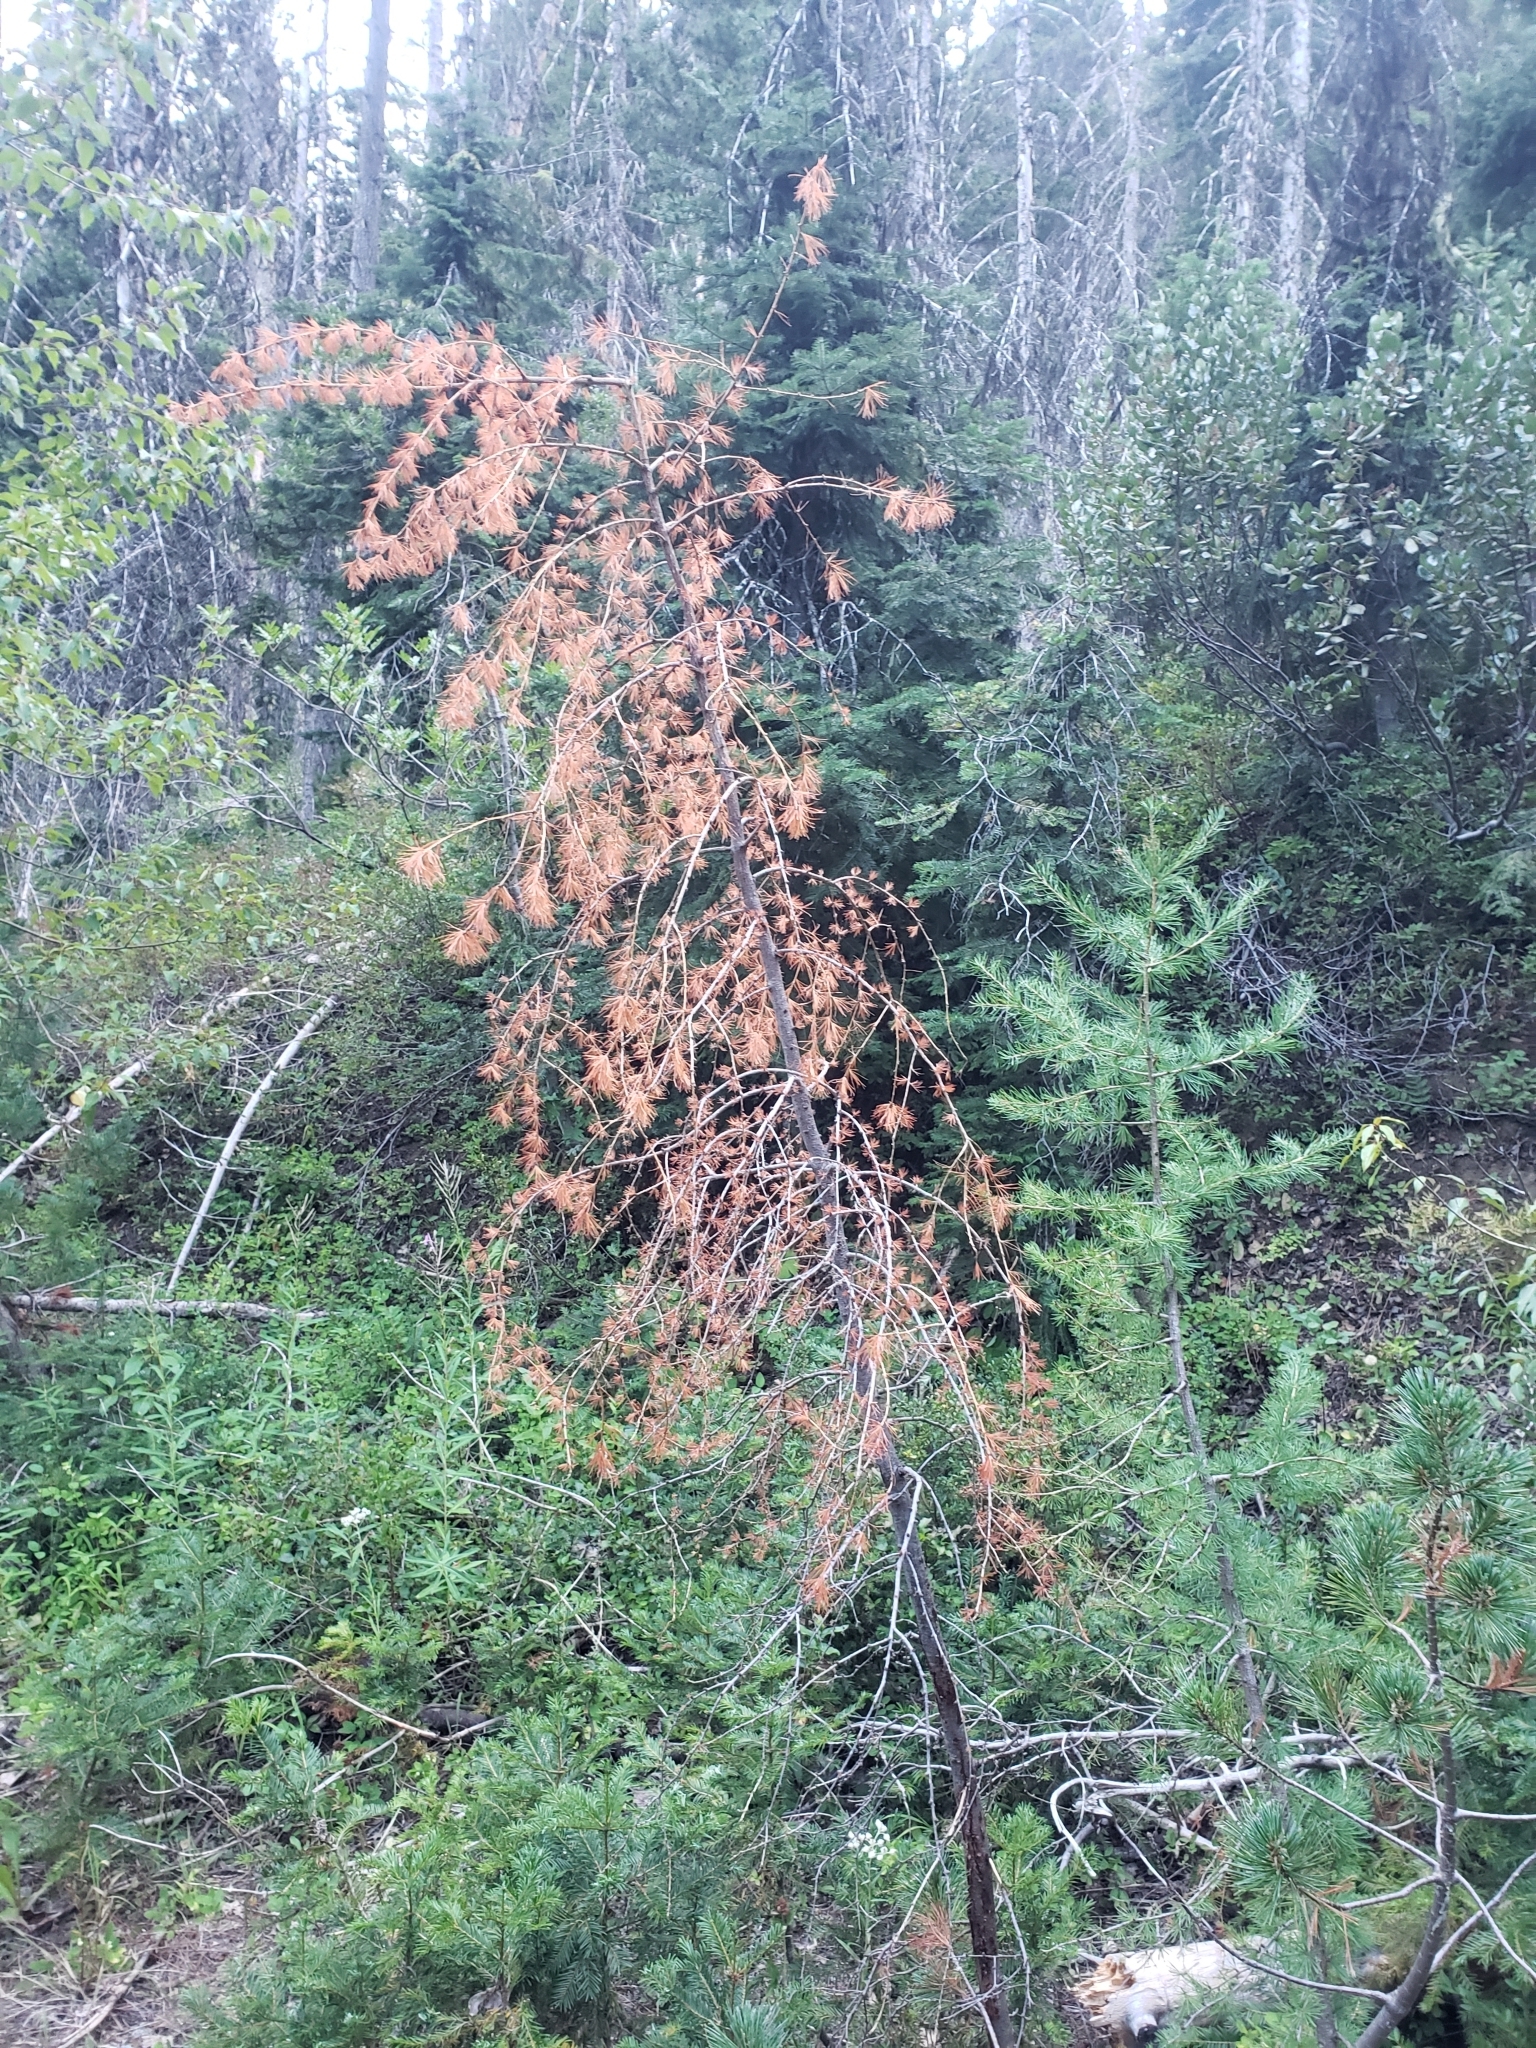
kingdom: Plantae
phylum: Tracheophyta
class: Pinopsida
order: Pinales
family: Pinaceae
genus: Larix
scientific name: Larix occidentalis
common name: Western larch
